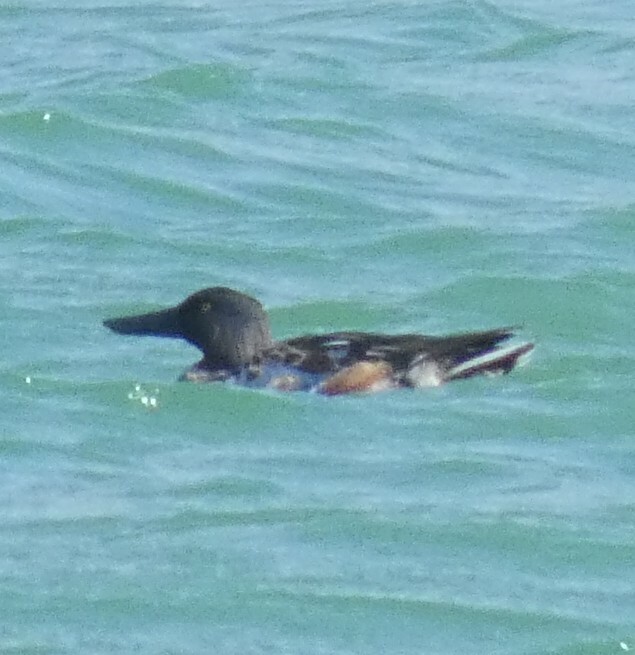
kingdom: Animalia
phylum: Chordata
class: Aves
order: Anseriformes
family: Anatidae
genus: Spatula
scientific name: Spatula clypeata
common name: Northern shoveler
